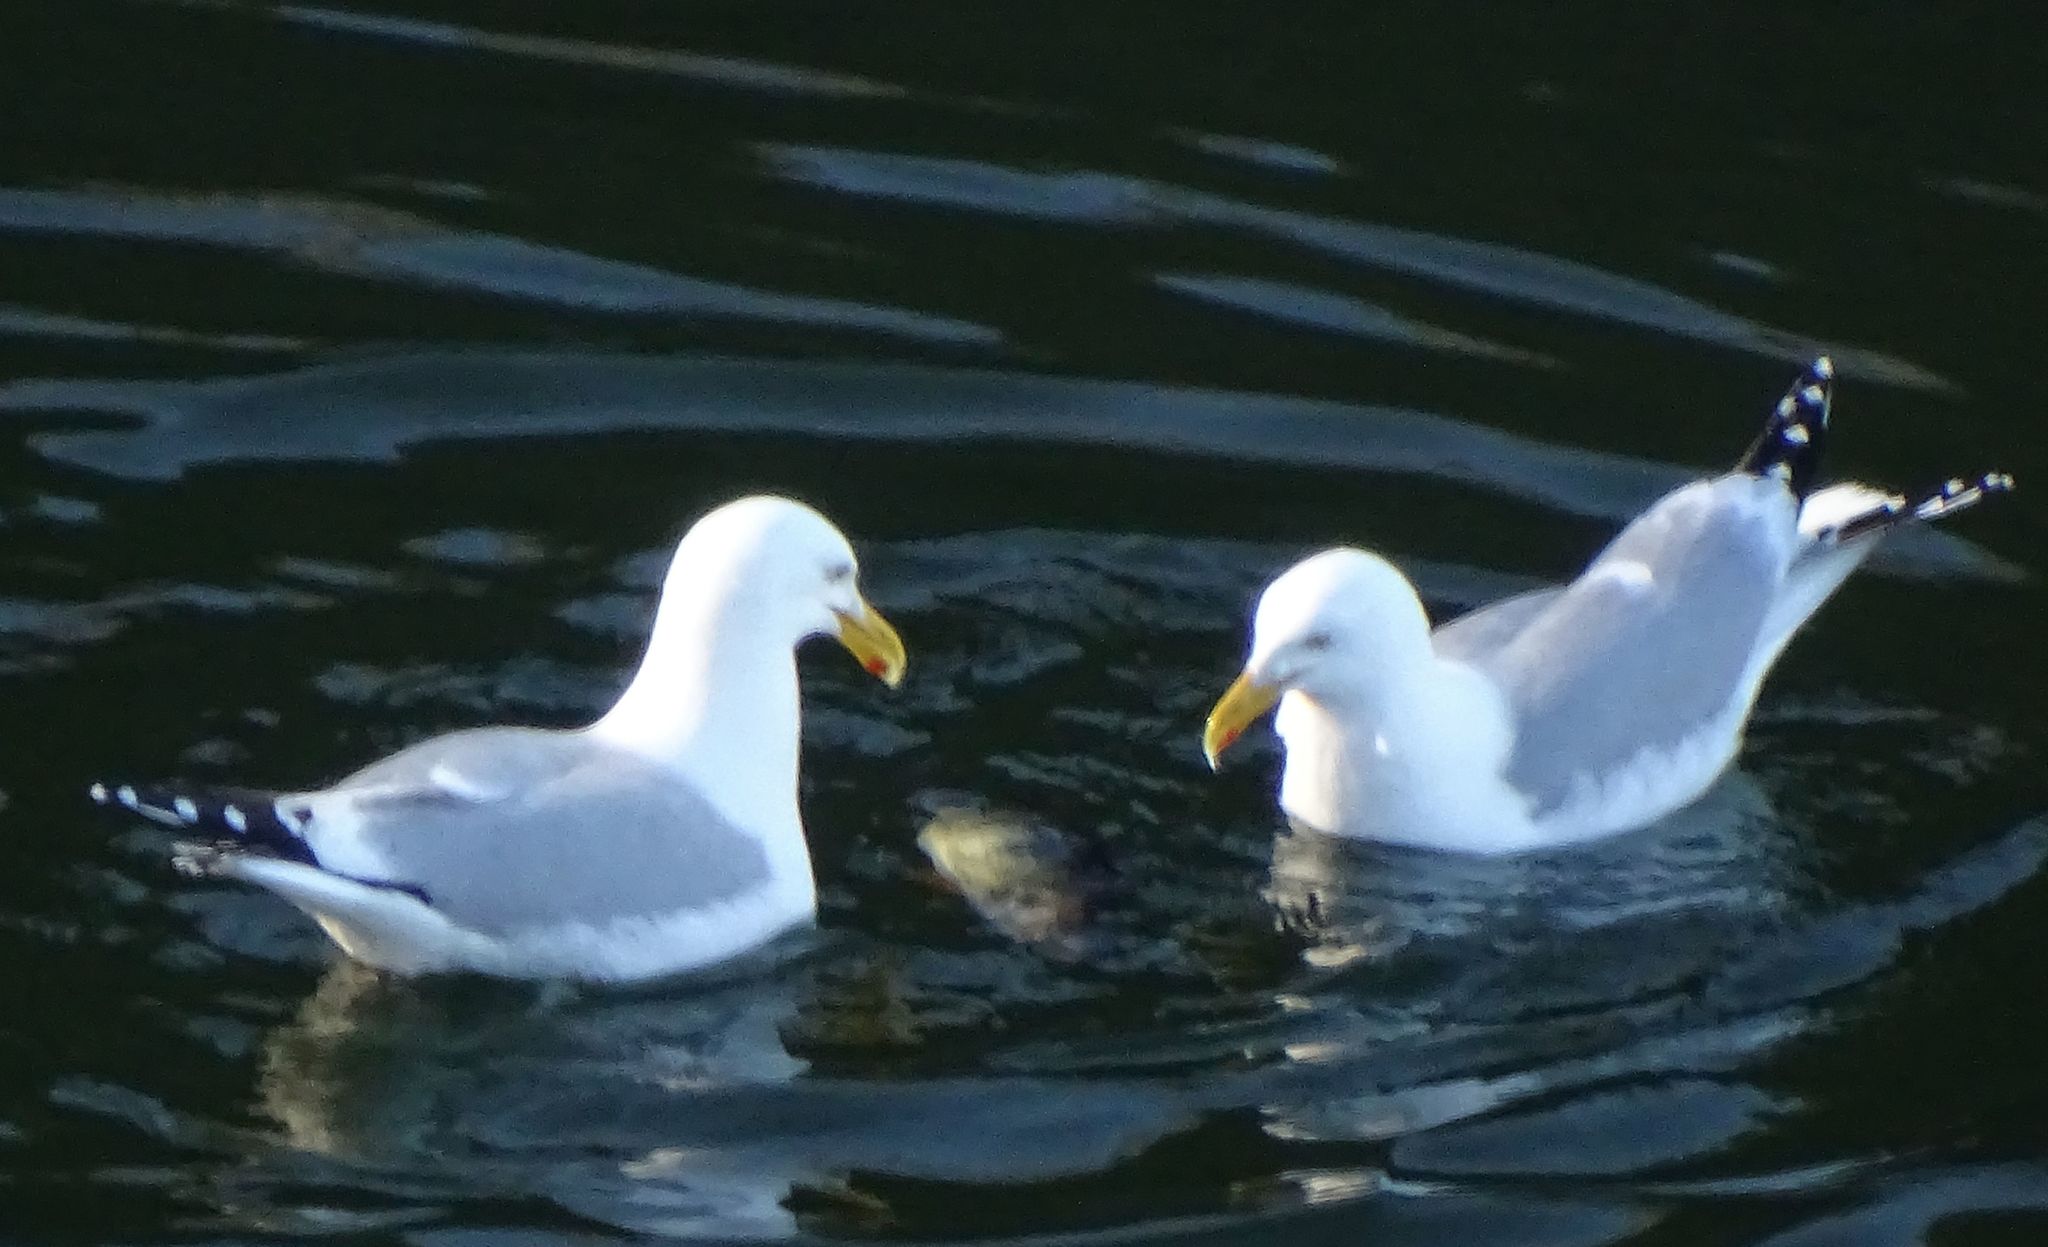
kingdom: Animalia
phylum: Chordata
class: Aves
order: Charadriiformes
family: Laridae
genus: Larus
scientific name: Larus argentatus
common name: Herring gull
